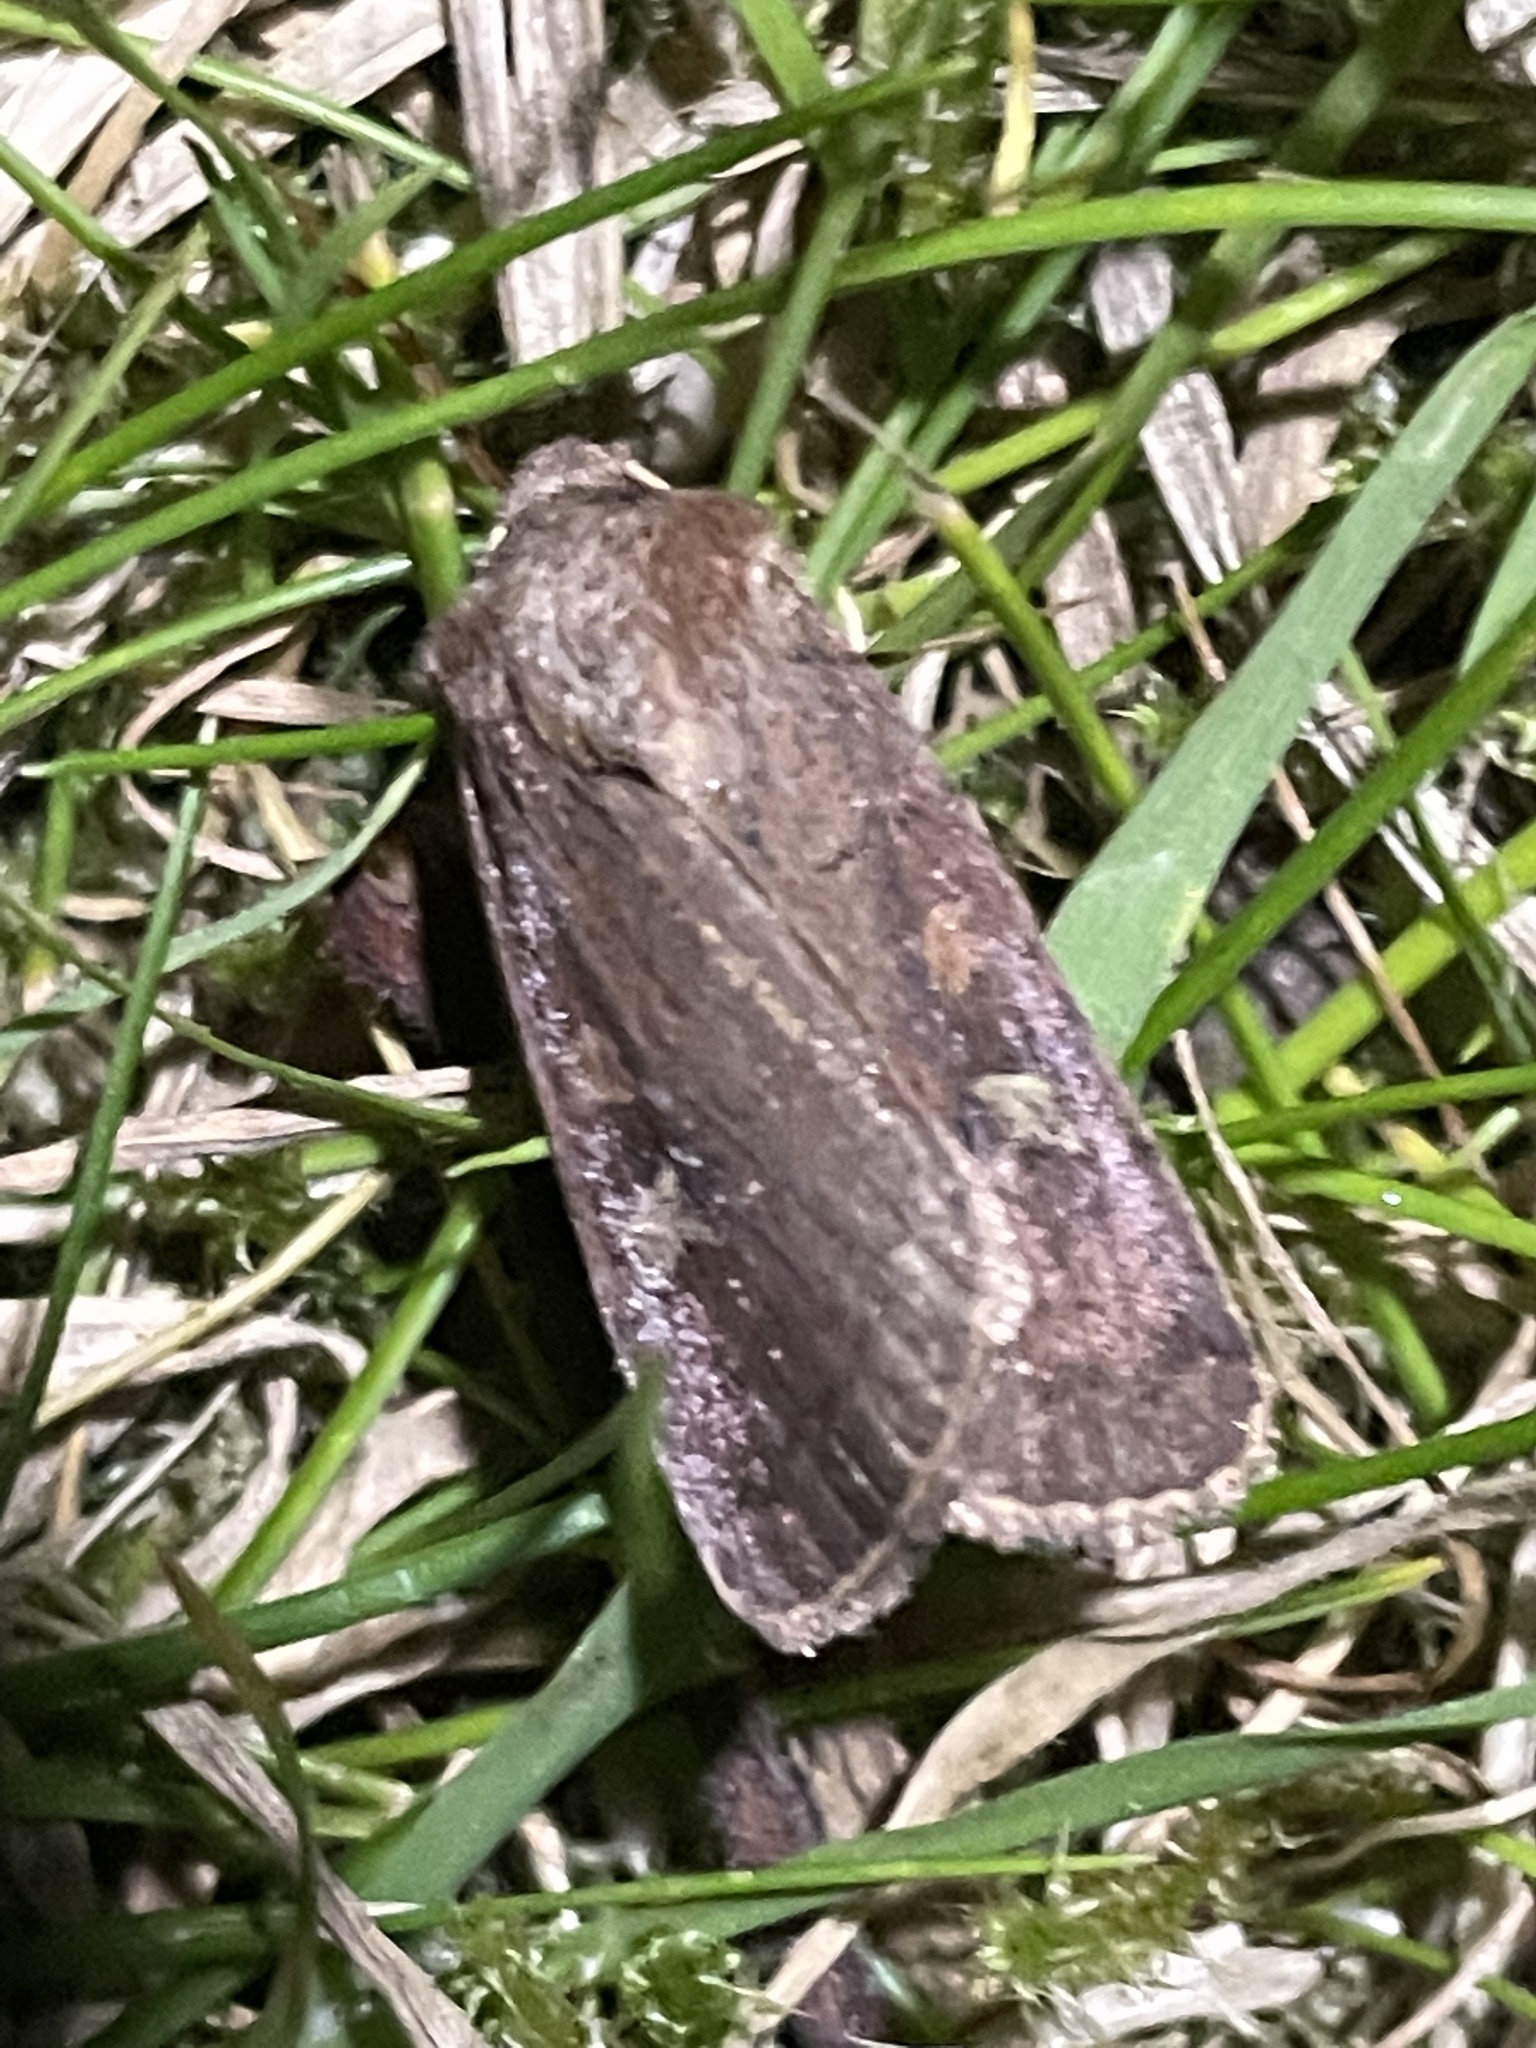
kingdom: Animalia
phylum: Arthropoda
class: Insecta
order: Lepidoptera
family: Noctuidae
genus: Xestia
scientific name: Xestia xanthographa
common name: Square-spot rustic
